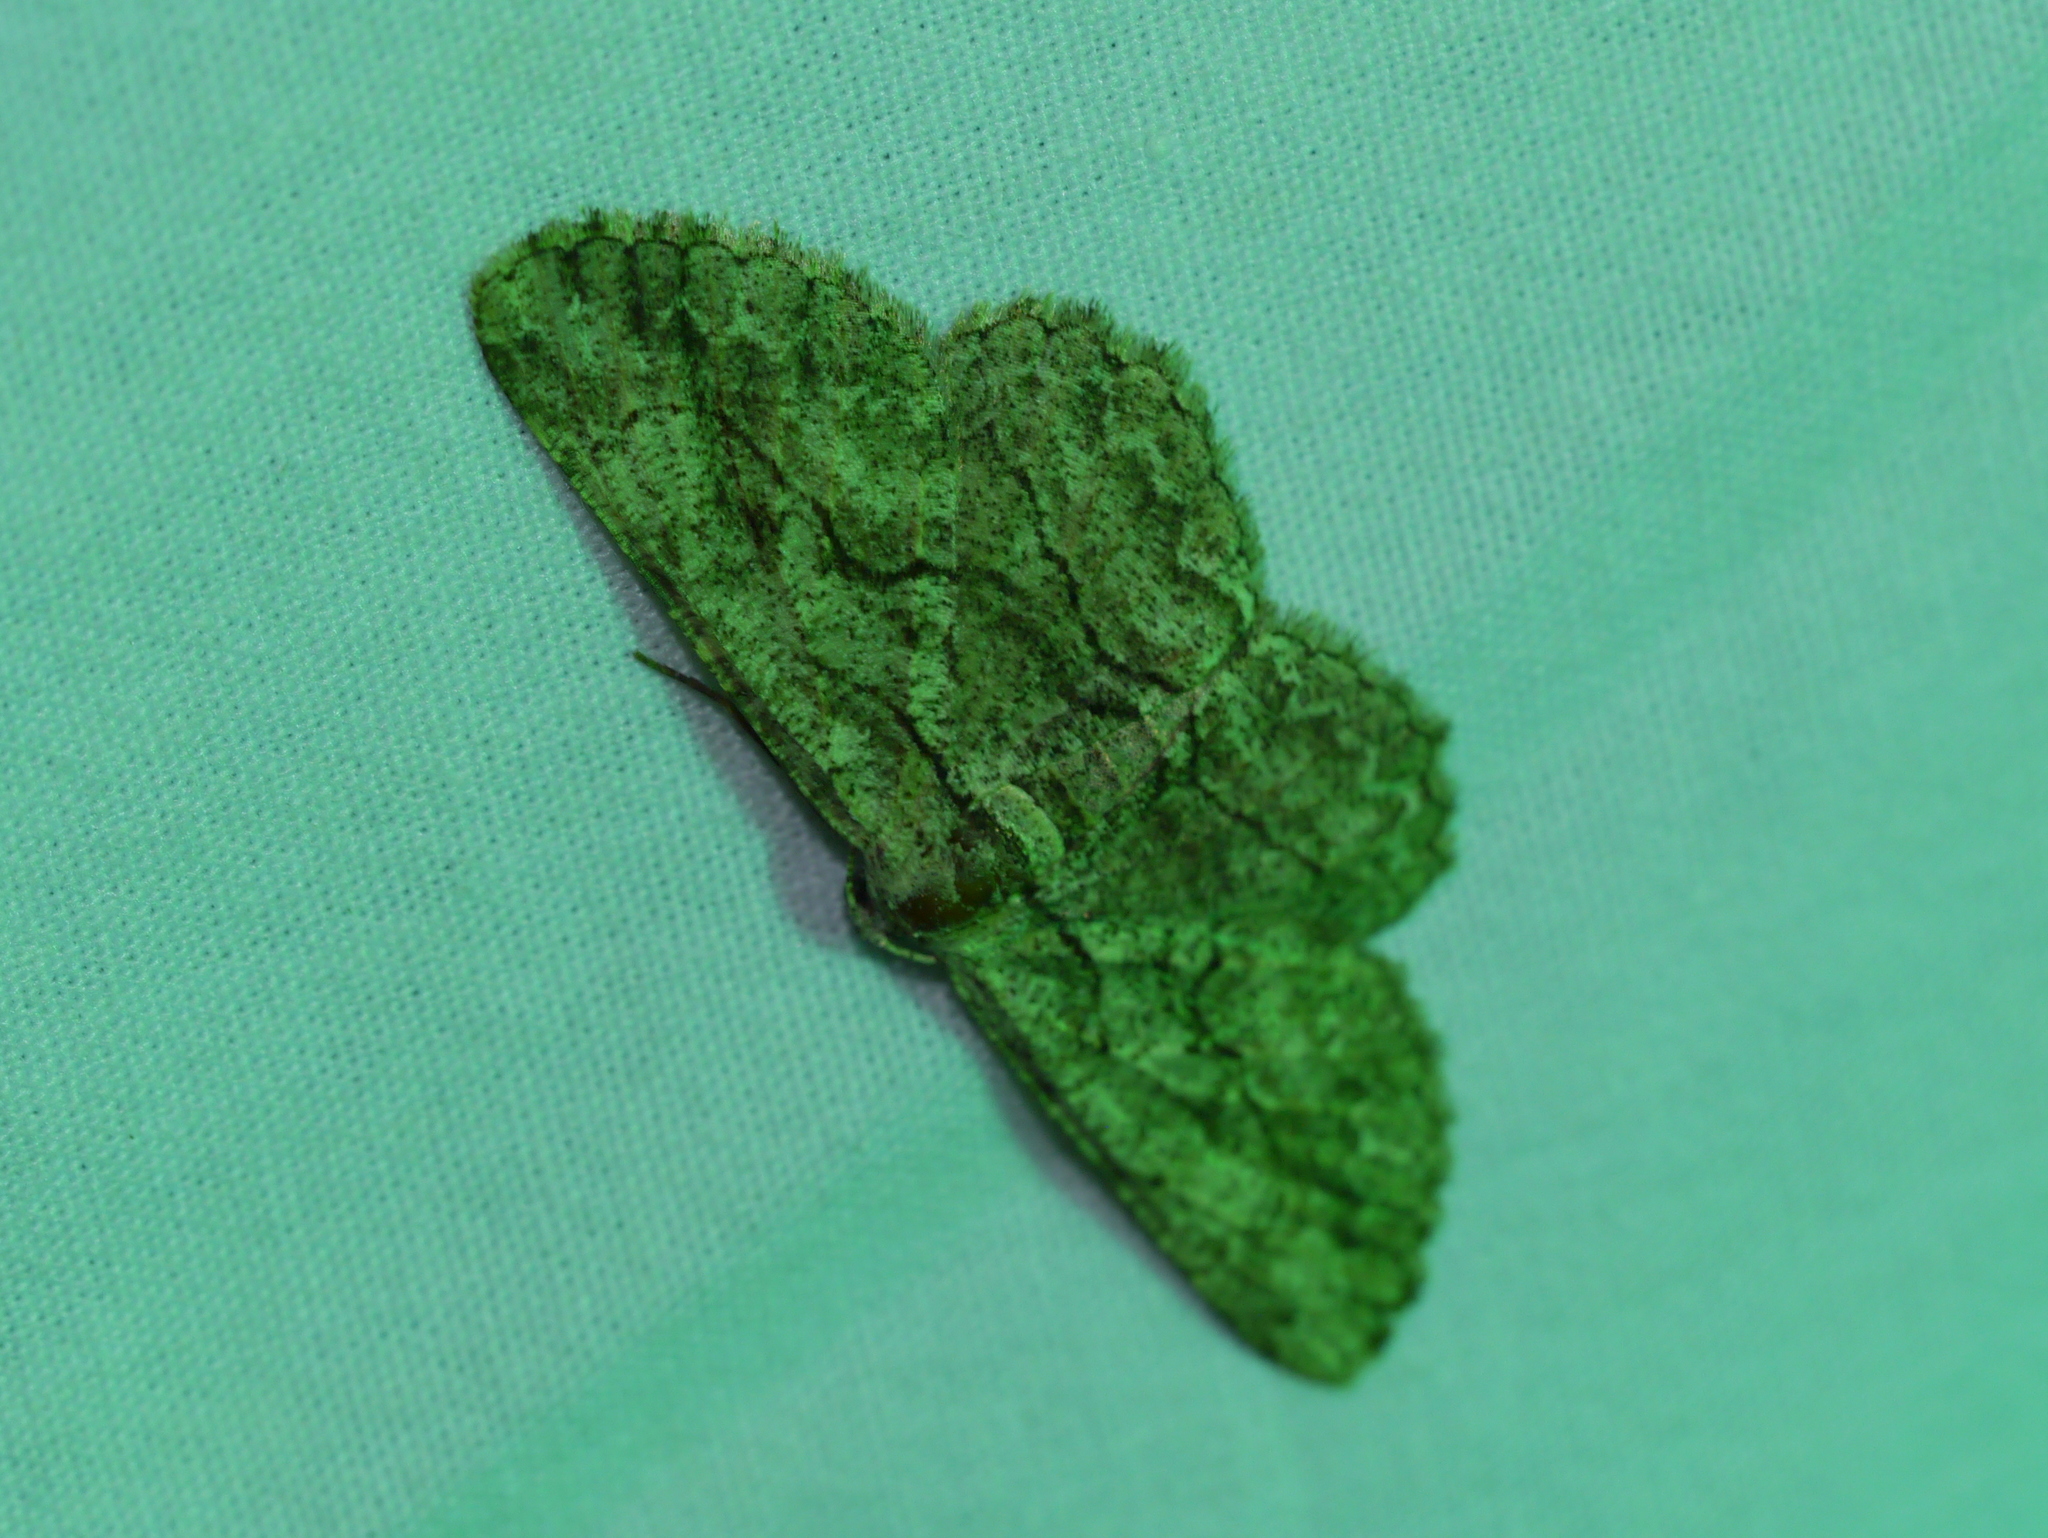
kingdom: Animalia
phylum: Arthropoda
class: Insecta
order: Lepidoptera
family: Geometridae
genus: Iridopsis
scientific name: Iridopsis defectaria
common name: Brown-shaded gray
